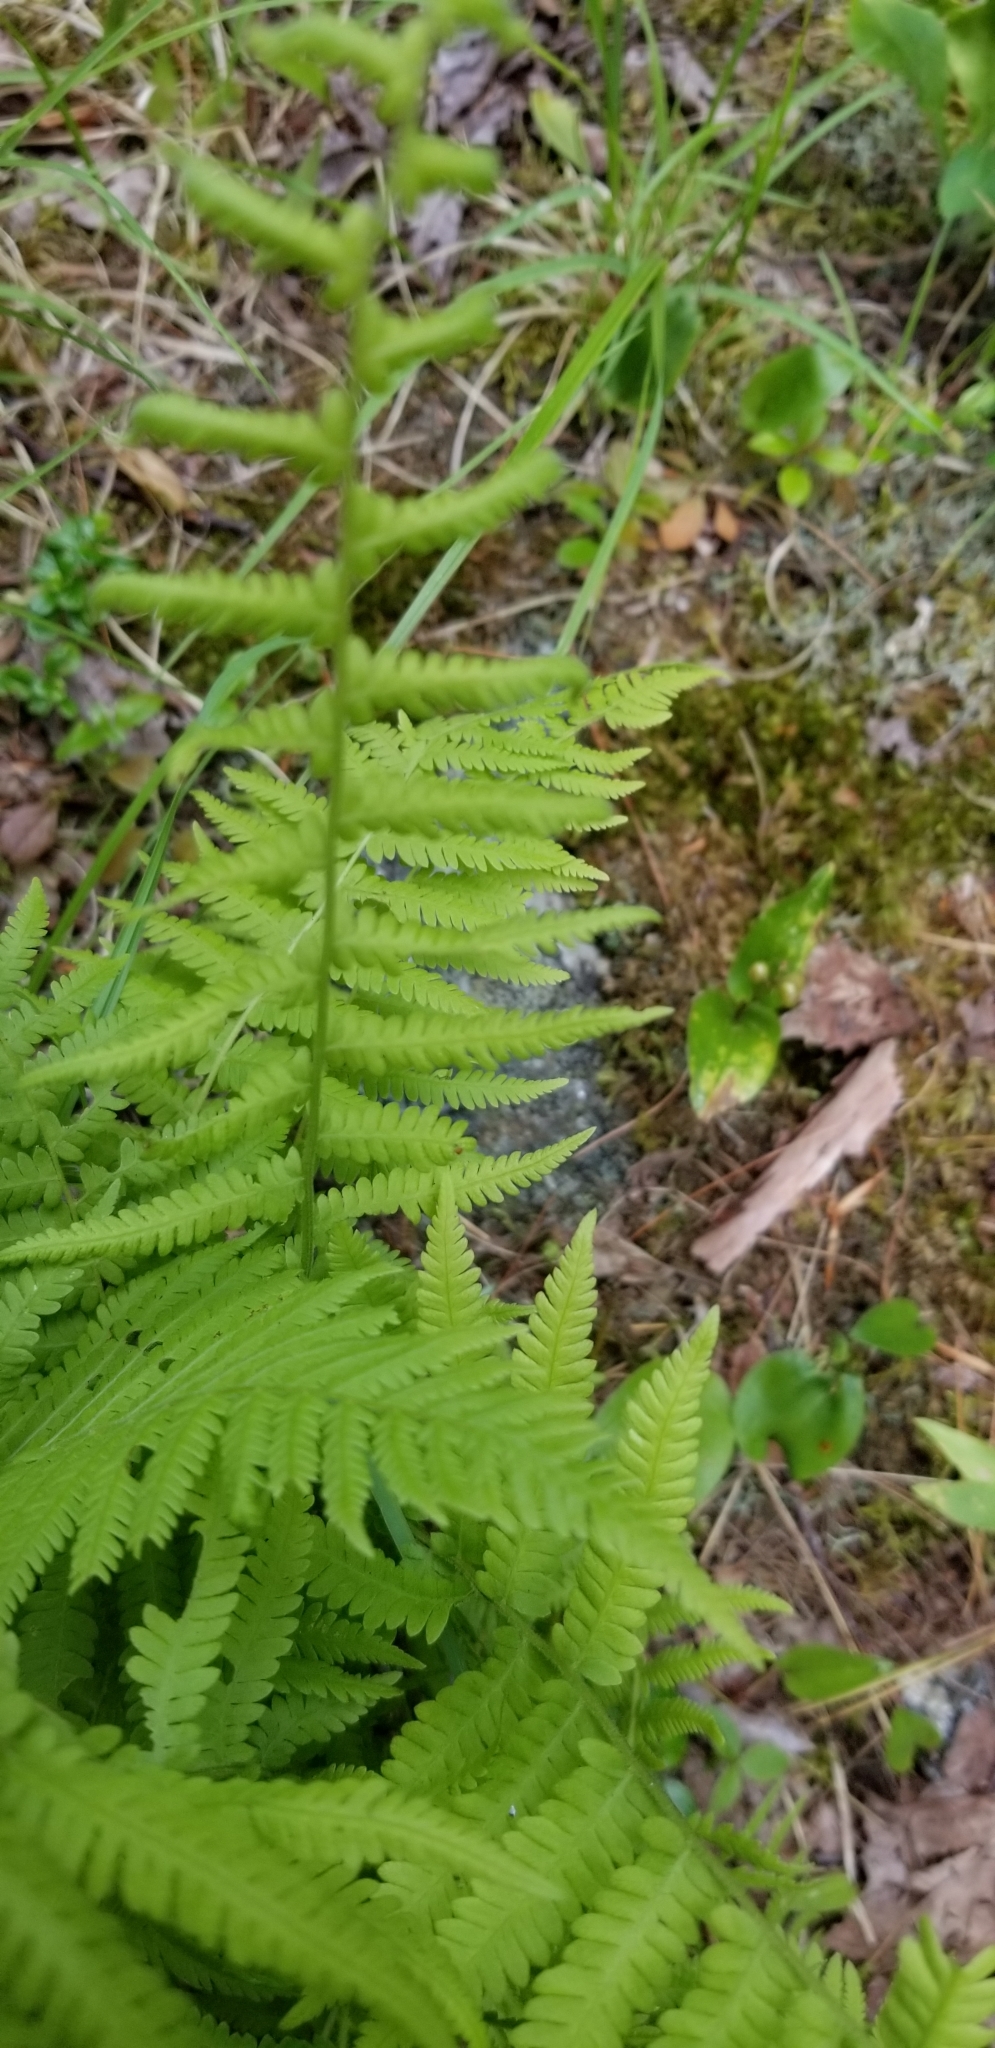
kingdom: Plantae
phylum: Tracheophyta
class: Polypodiopsida
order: Polypodiales
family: Thelypteridaceae
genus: Amauropelta
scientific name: Amauropelta noveboracensis
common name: New york fern
